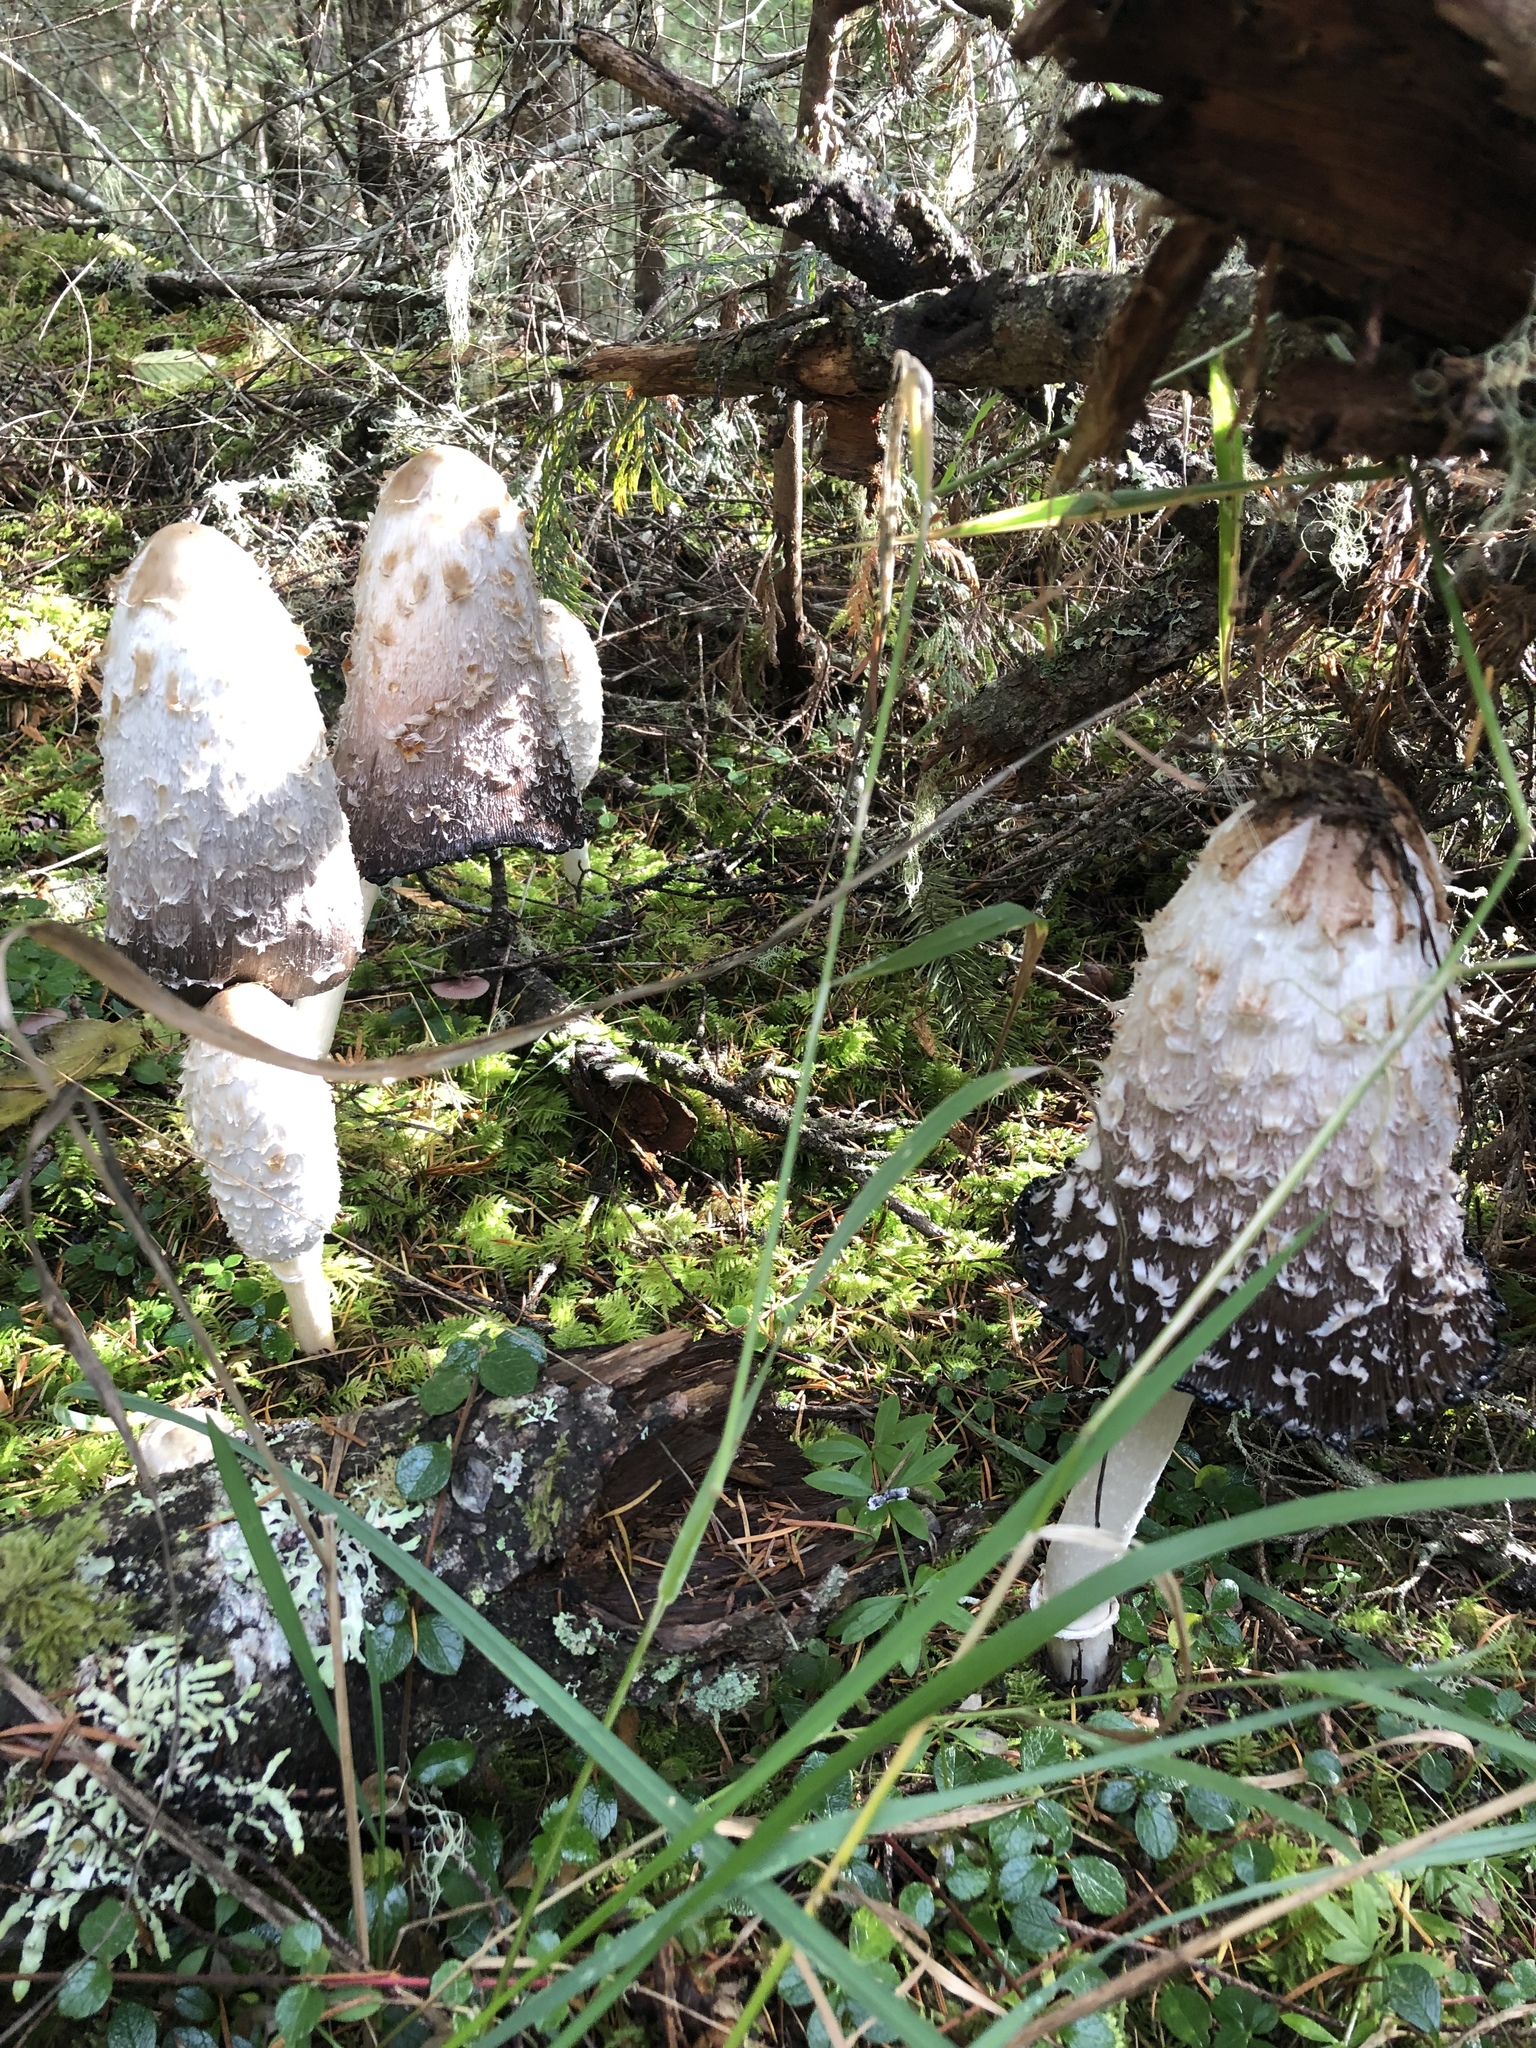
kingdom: Fungi
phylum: Basidiomycota
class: Agaricomycetes
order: Agaricales
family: Agaricaceae
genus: Coprinus
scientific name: Coprinus comatus
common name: Lawyer's wig
